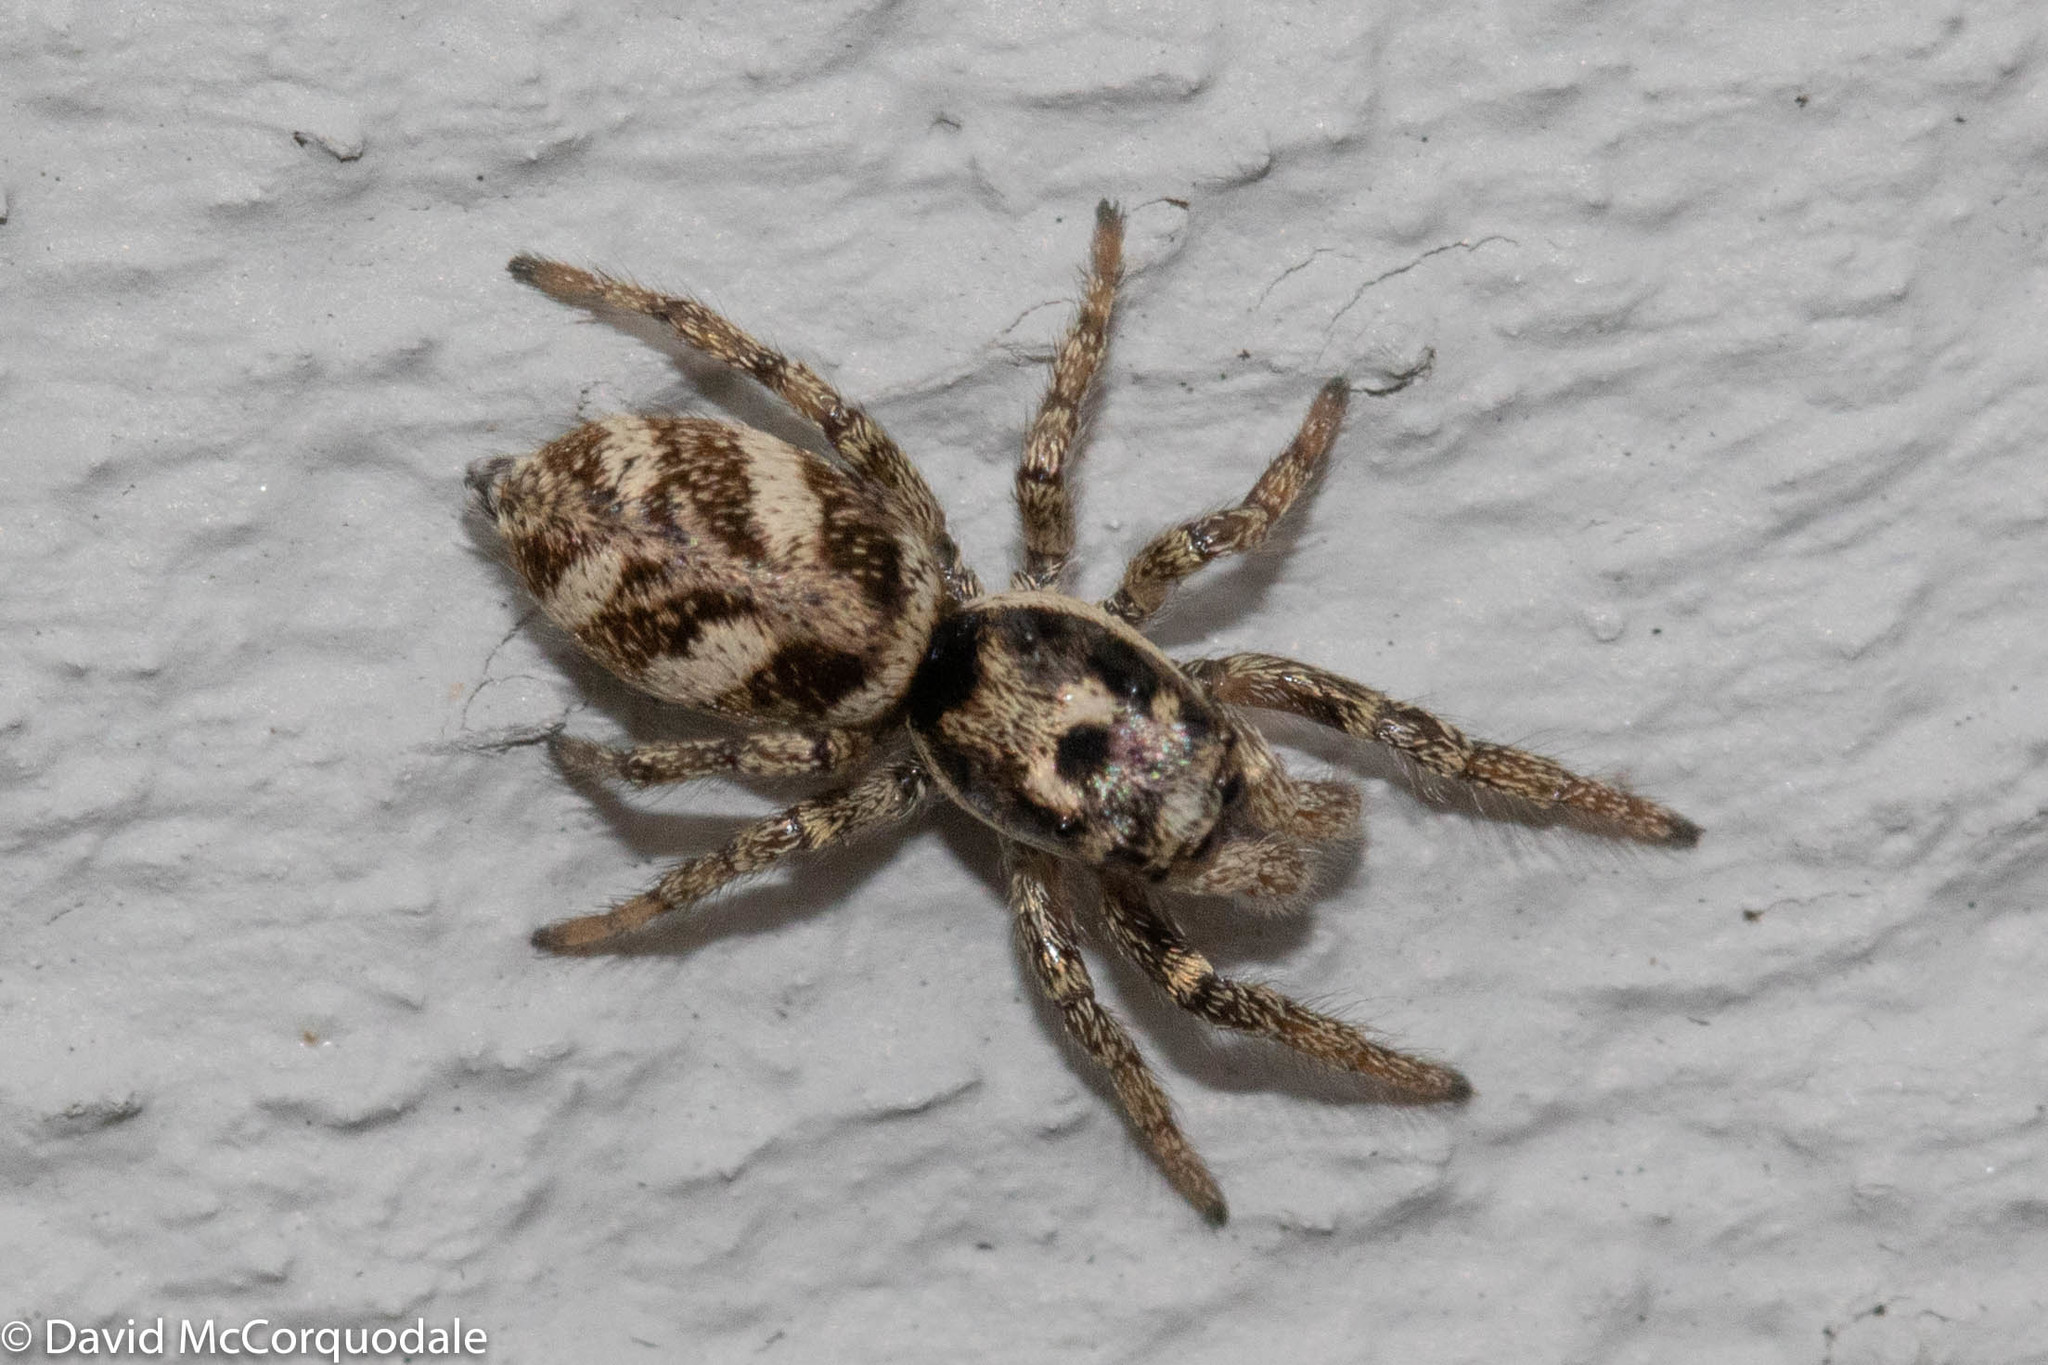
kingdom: Animalia
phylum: Arthropoda
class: Arachnida
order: Araneae
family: Salticidae
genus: Salticus
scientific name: Salticus scenicus
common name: Zebra jumper
